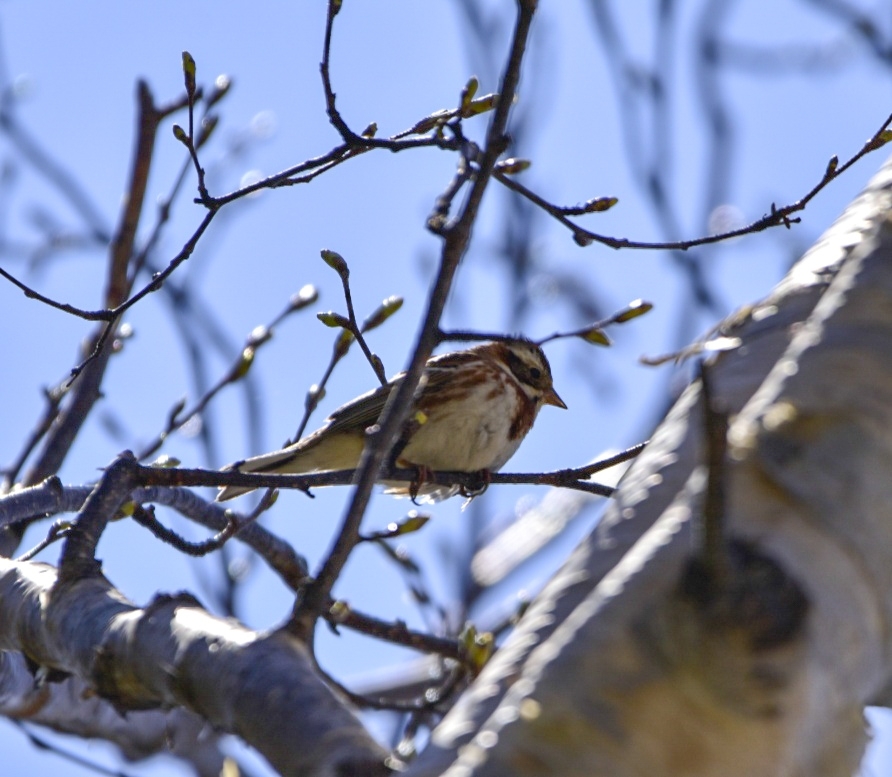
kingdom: Animalia
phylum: Chordata
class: Aves
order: Passeriformes
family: Emberizidae
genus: Emberiza
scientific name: Emberiza rustica
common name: Rustic bunting
